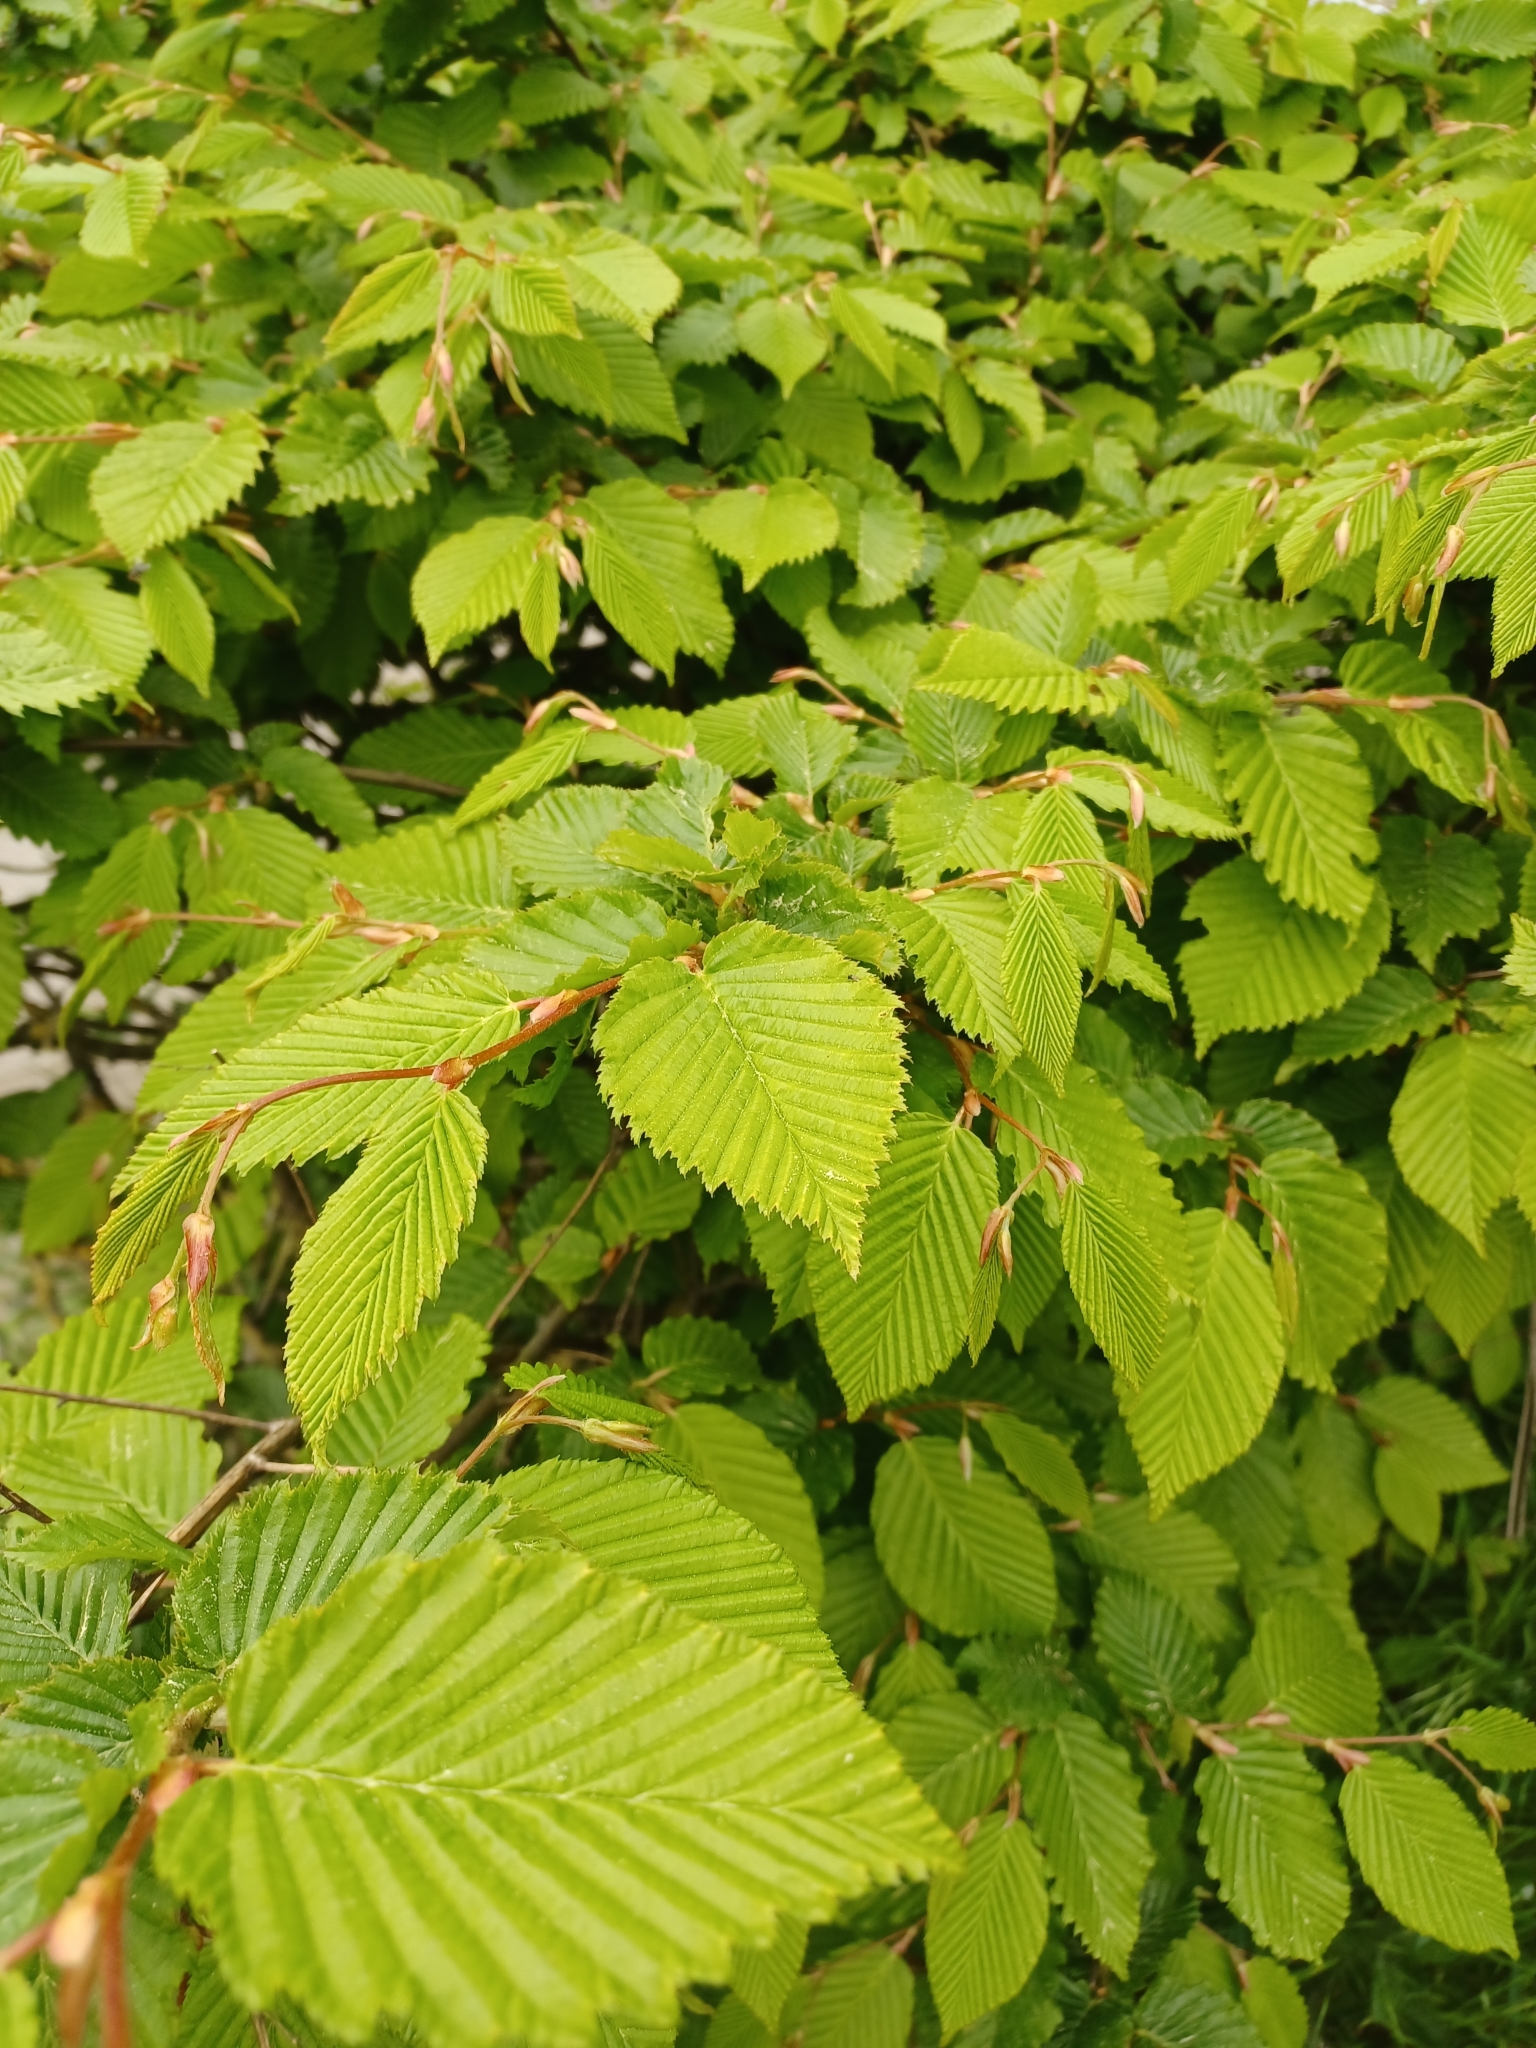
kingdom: Plantae
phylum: Tracheophyta
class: Magnoliopsida
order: Fagales
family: Betulaceae
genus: Carpinus
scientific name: Carpinus betulus
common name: Hornbeam
